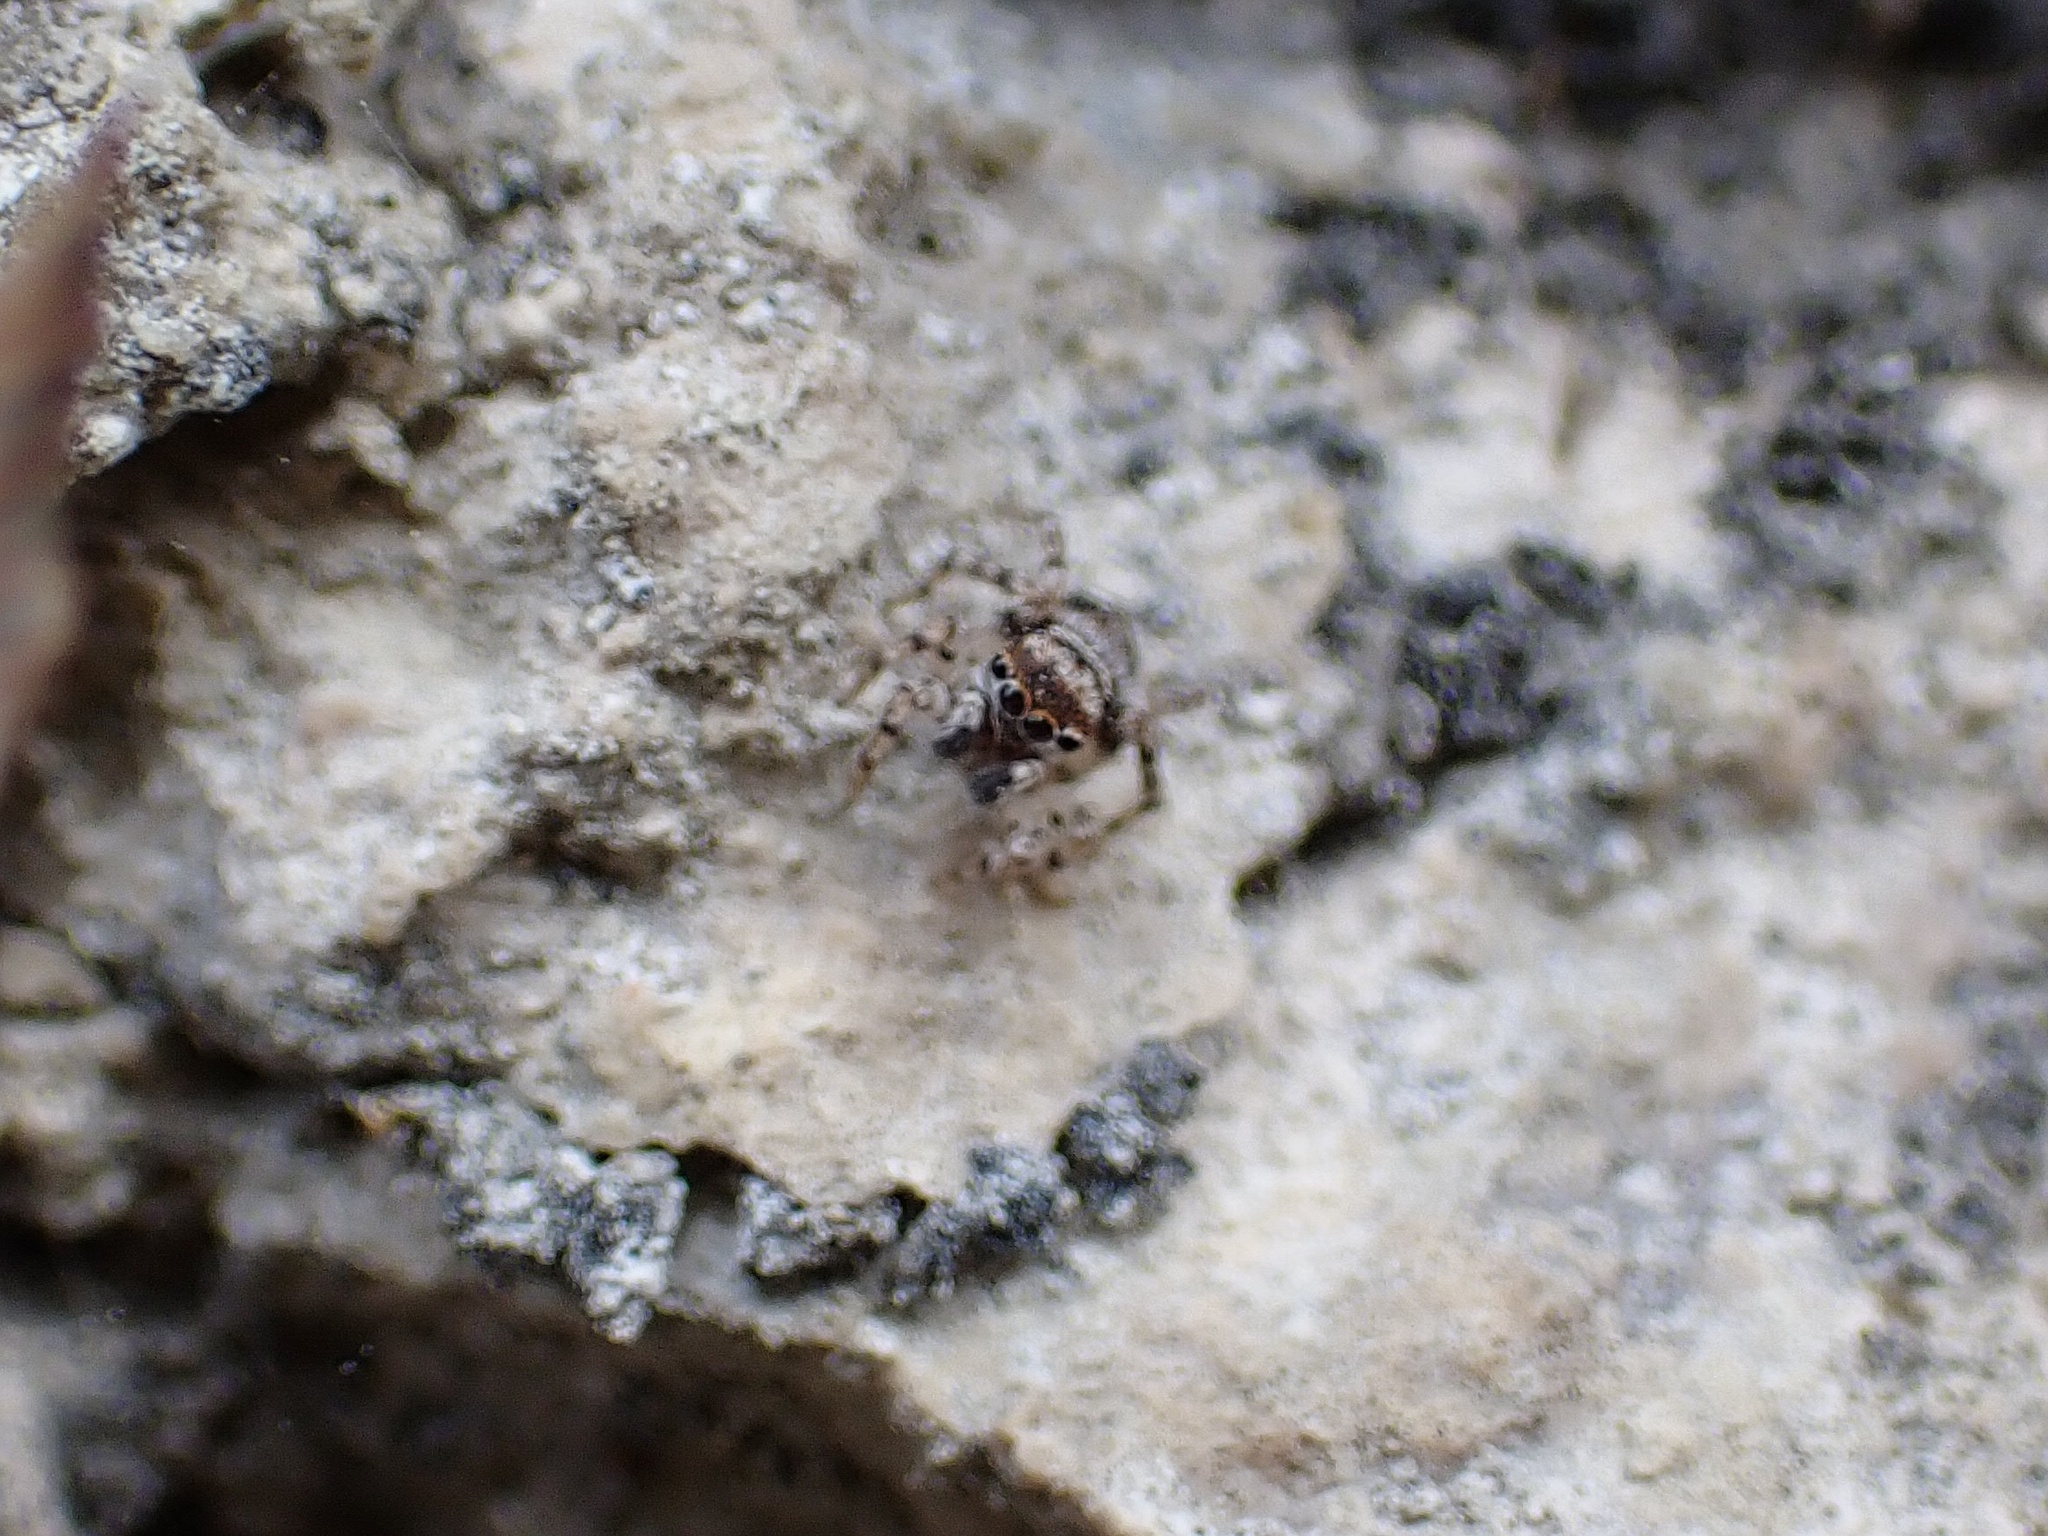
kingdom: Animalia
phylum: Arthropoda
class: Arachnida
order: Araneae
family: Salticidae
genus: Naphrys
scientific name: Naphrys acerba
